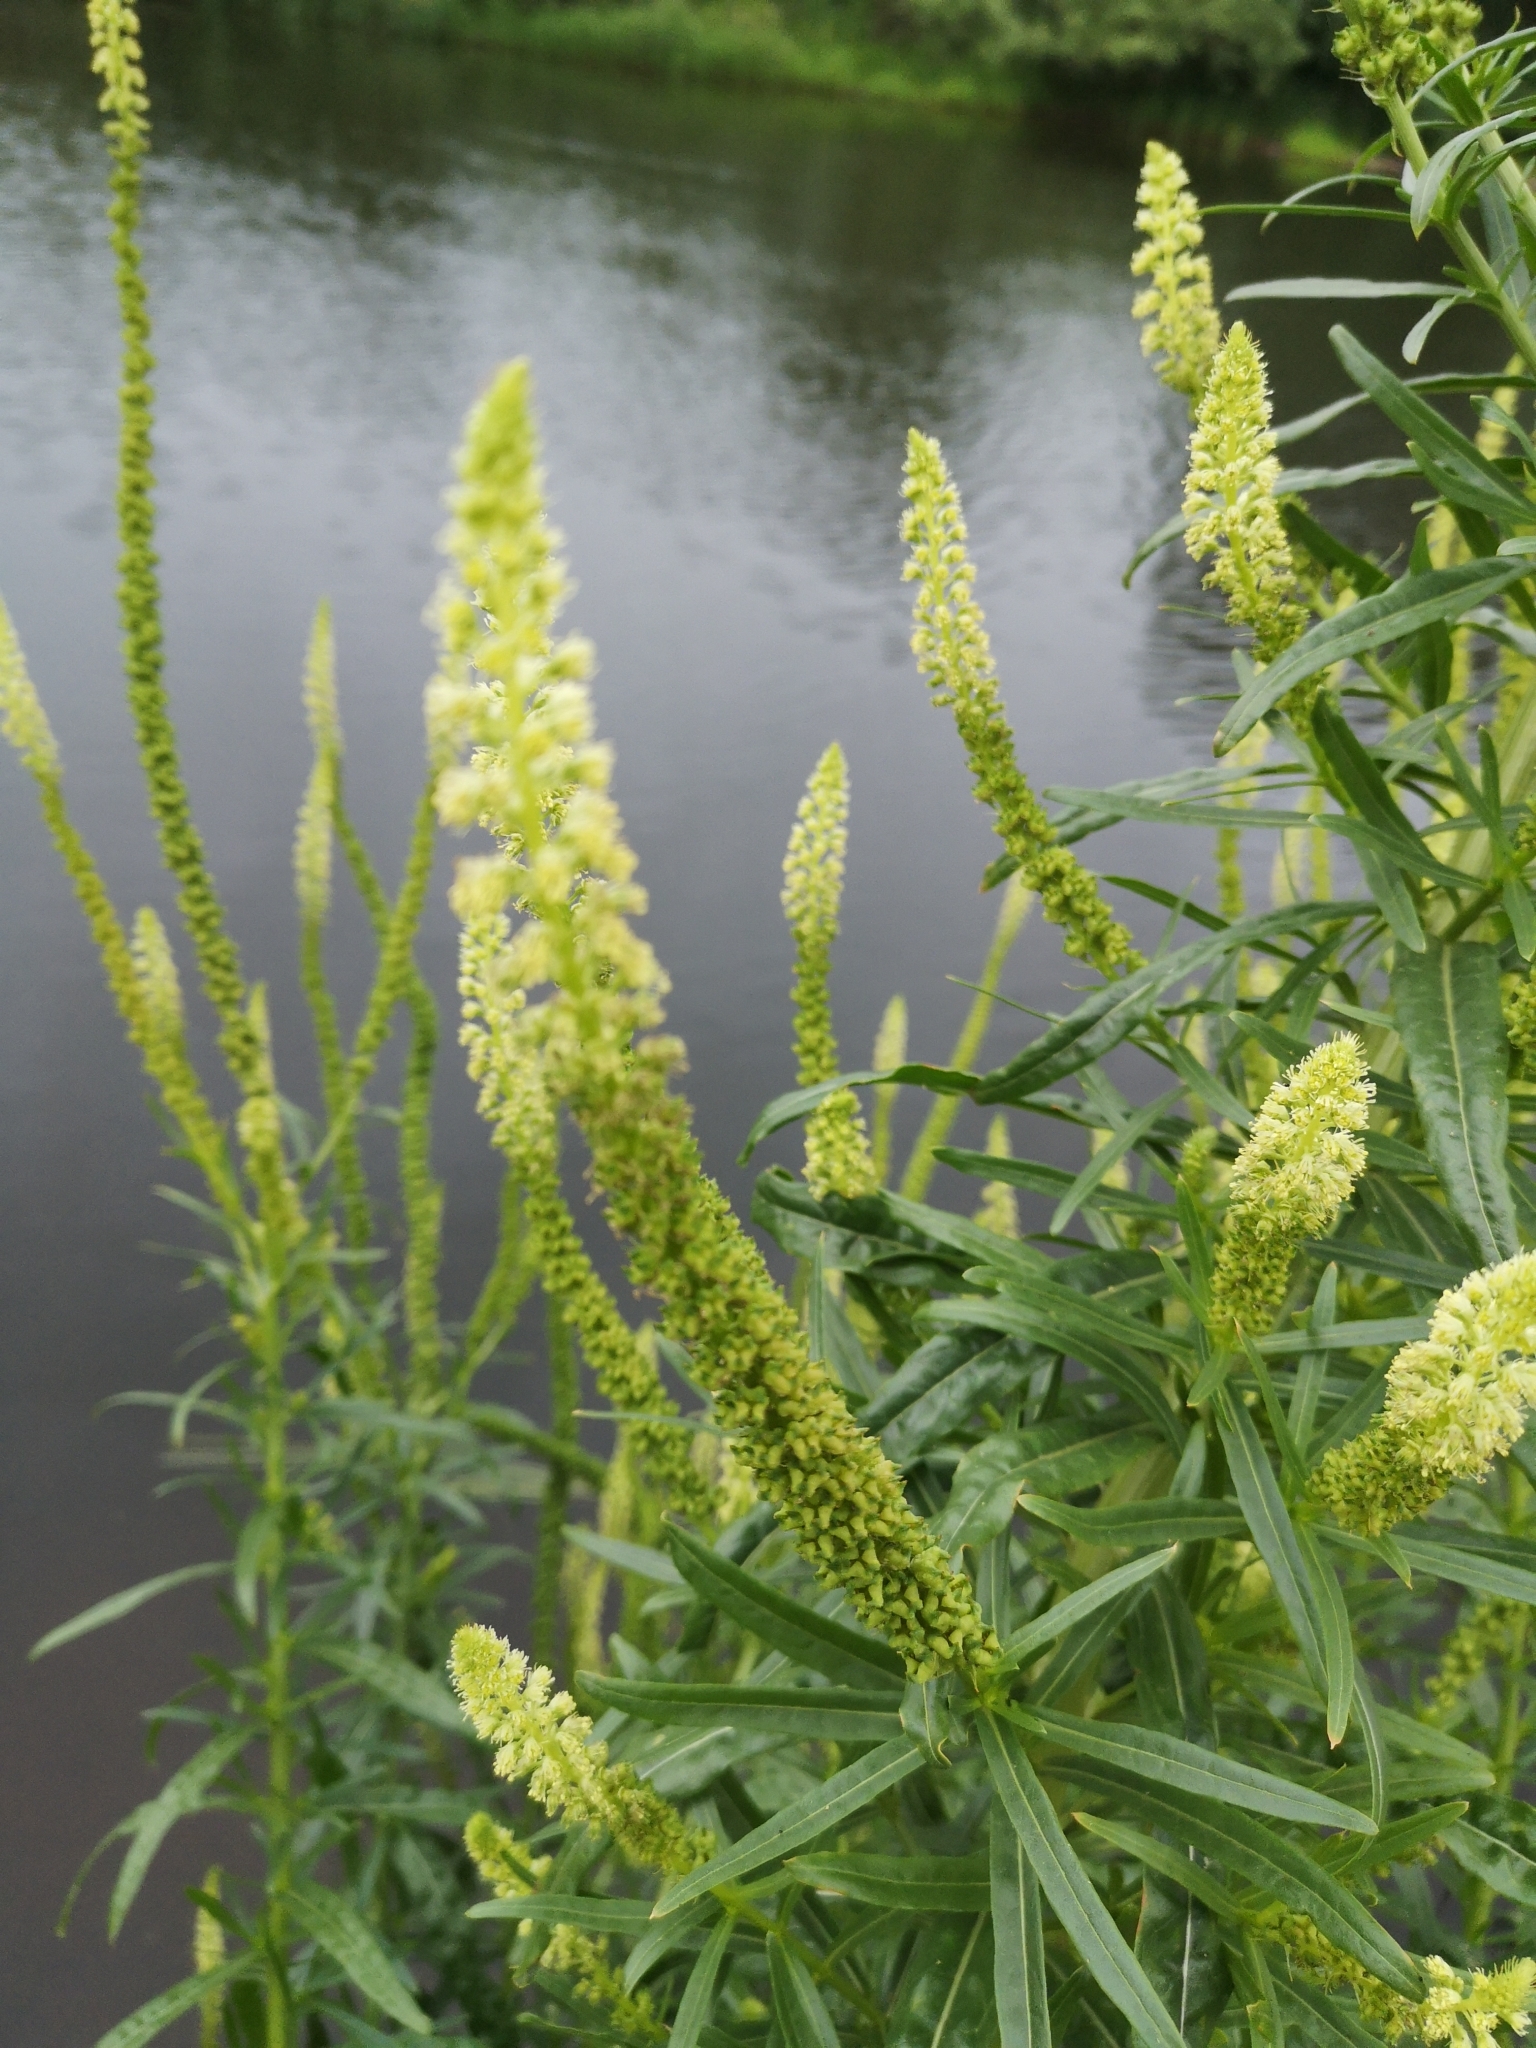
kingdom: Plantae
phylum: Tracheophyta
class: Magnoliopsida
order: Brassicales
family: Resedaceae
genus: Reseda
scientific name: Reseda luteola
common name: Weld
